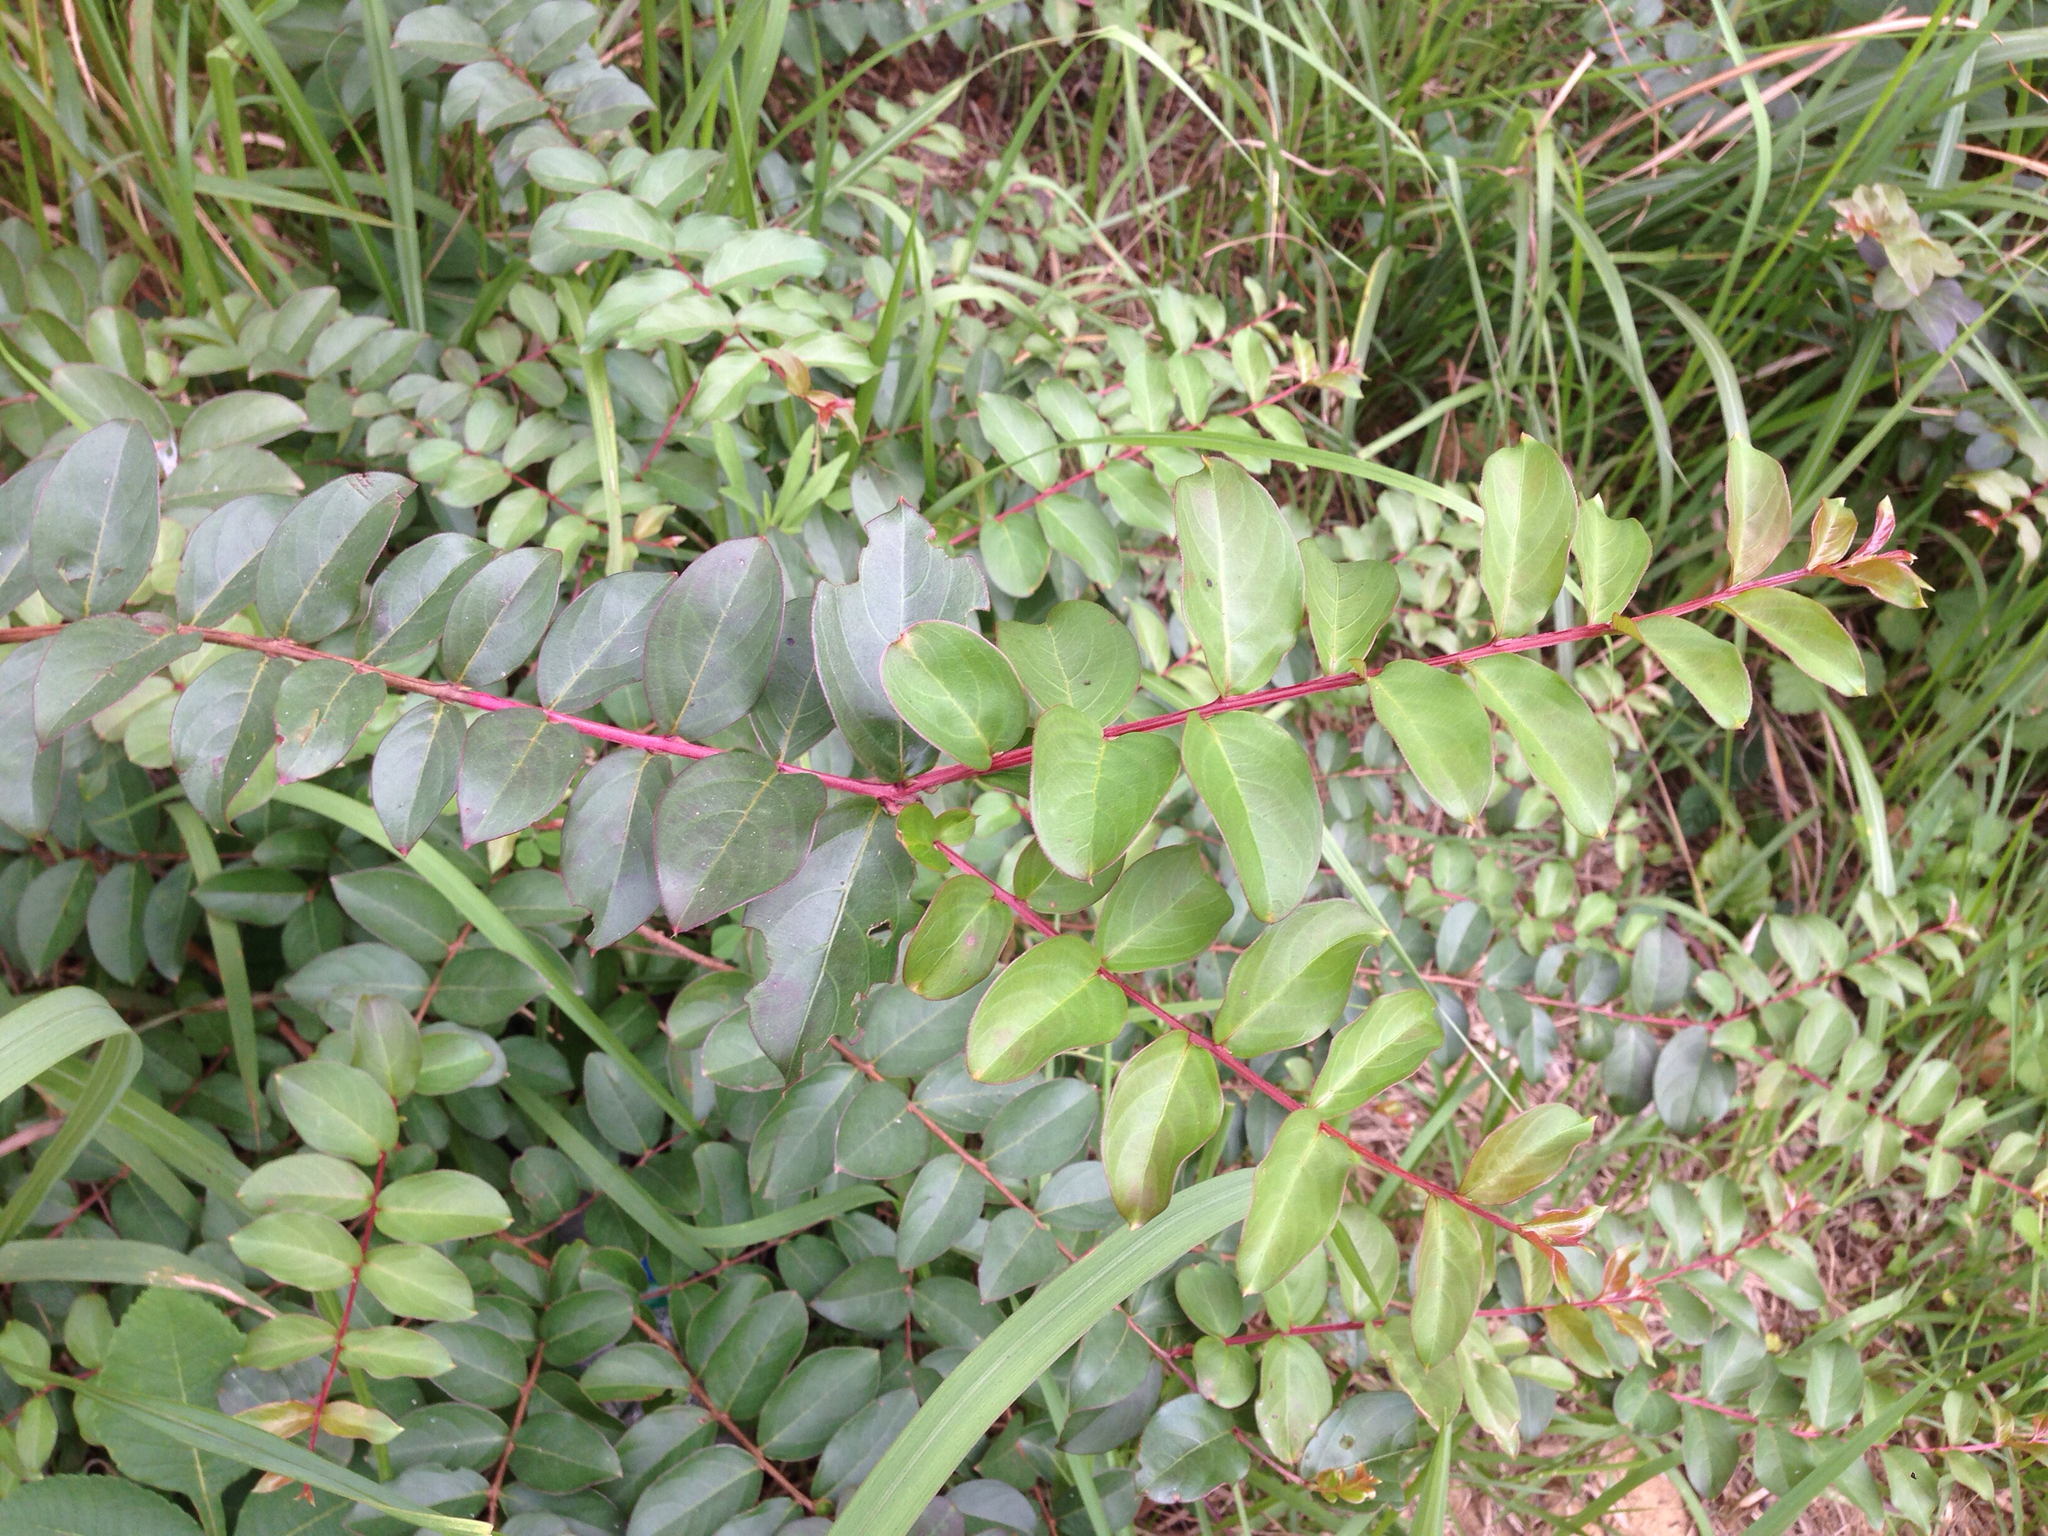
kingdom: Plantae
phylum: Tracheophyta
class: Magnoliopsida
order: Myrtales
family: Lythraceae
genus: Lagerstroemia
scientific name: Lagerstroemia indica
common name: Crape-myrtle
